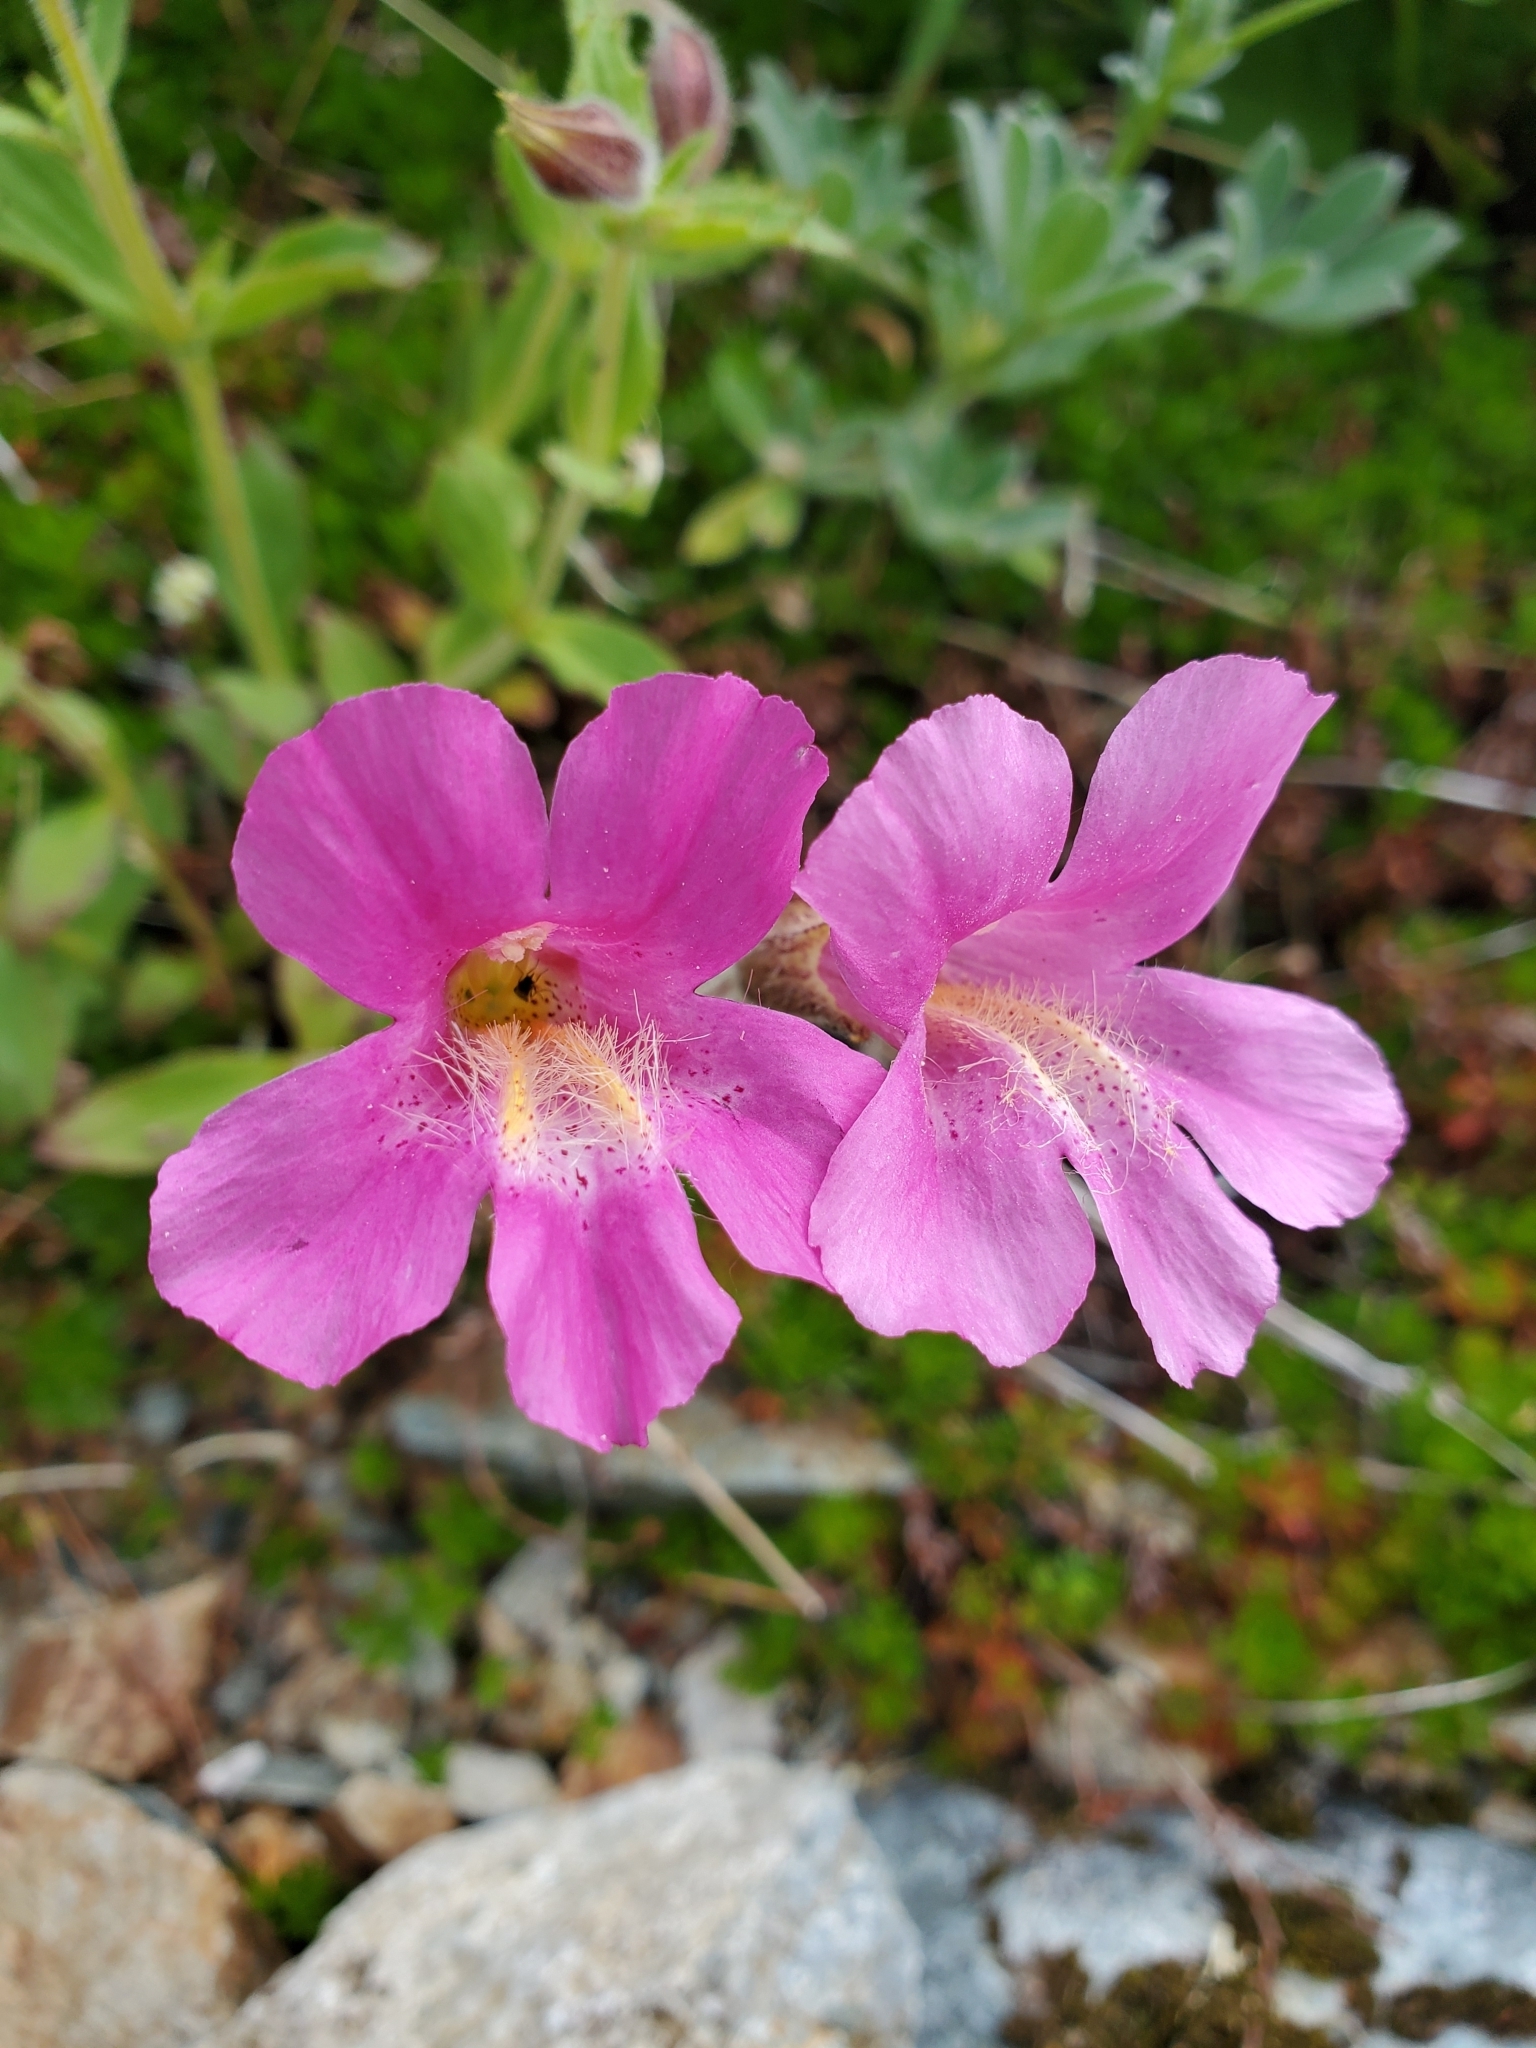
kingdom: Plantae
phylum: Tracheophyta
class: Magnoliopsida
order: Lamiales
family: Phrymaceae
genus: Erythranthe
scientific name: Erythranthe lewisii
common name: Lewis's monkey-flower
